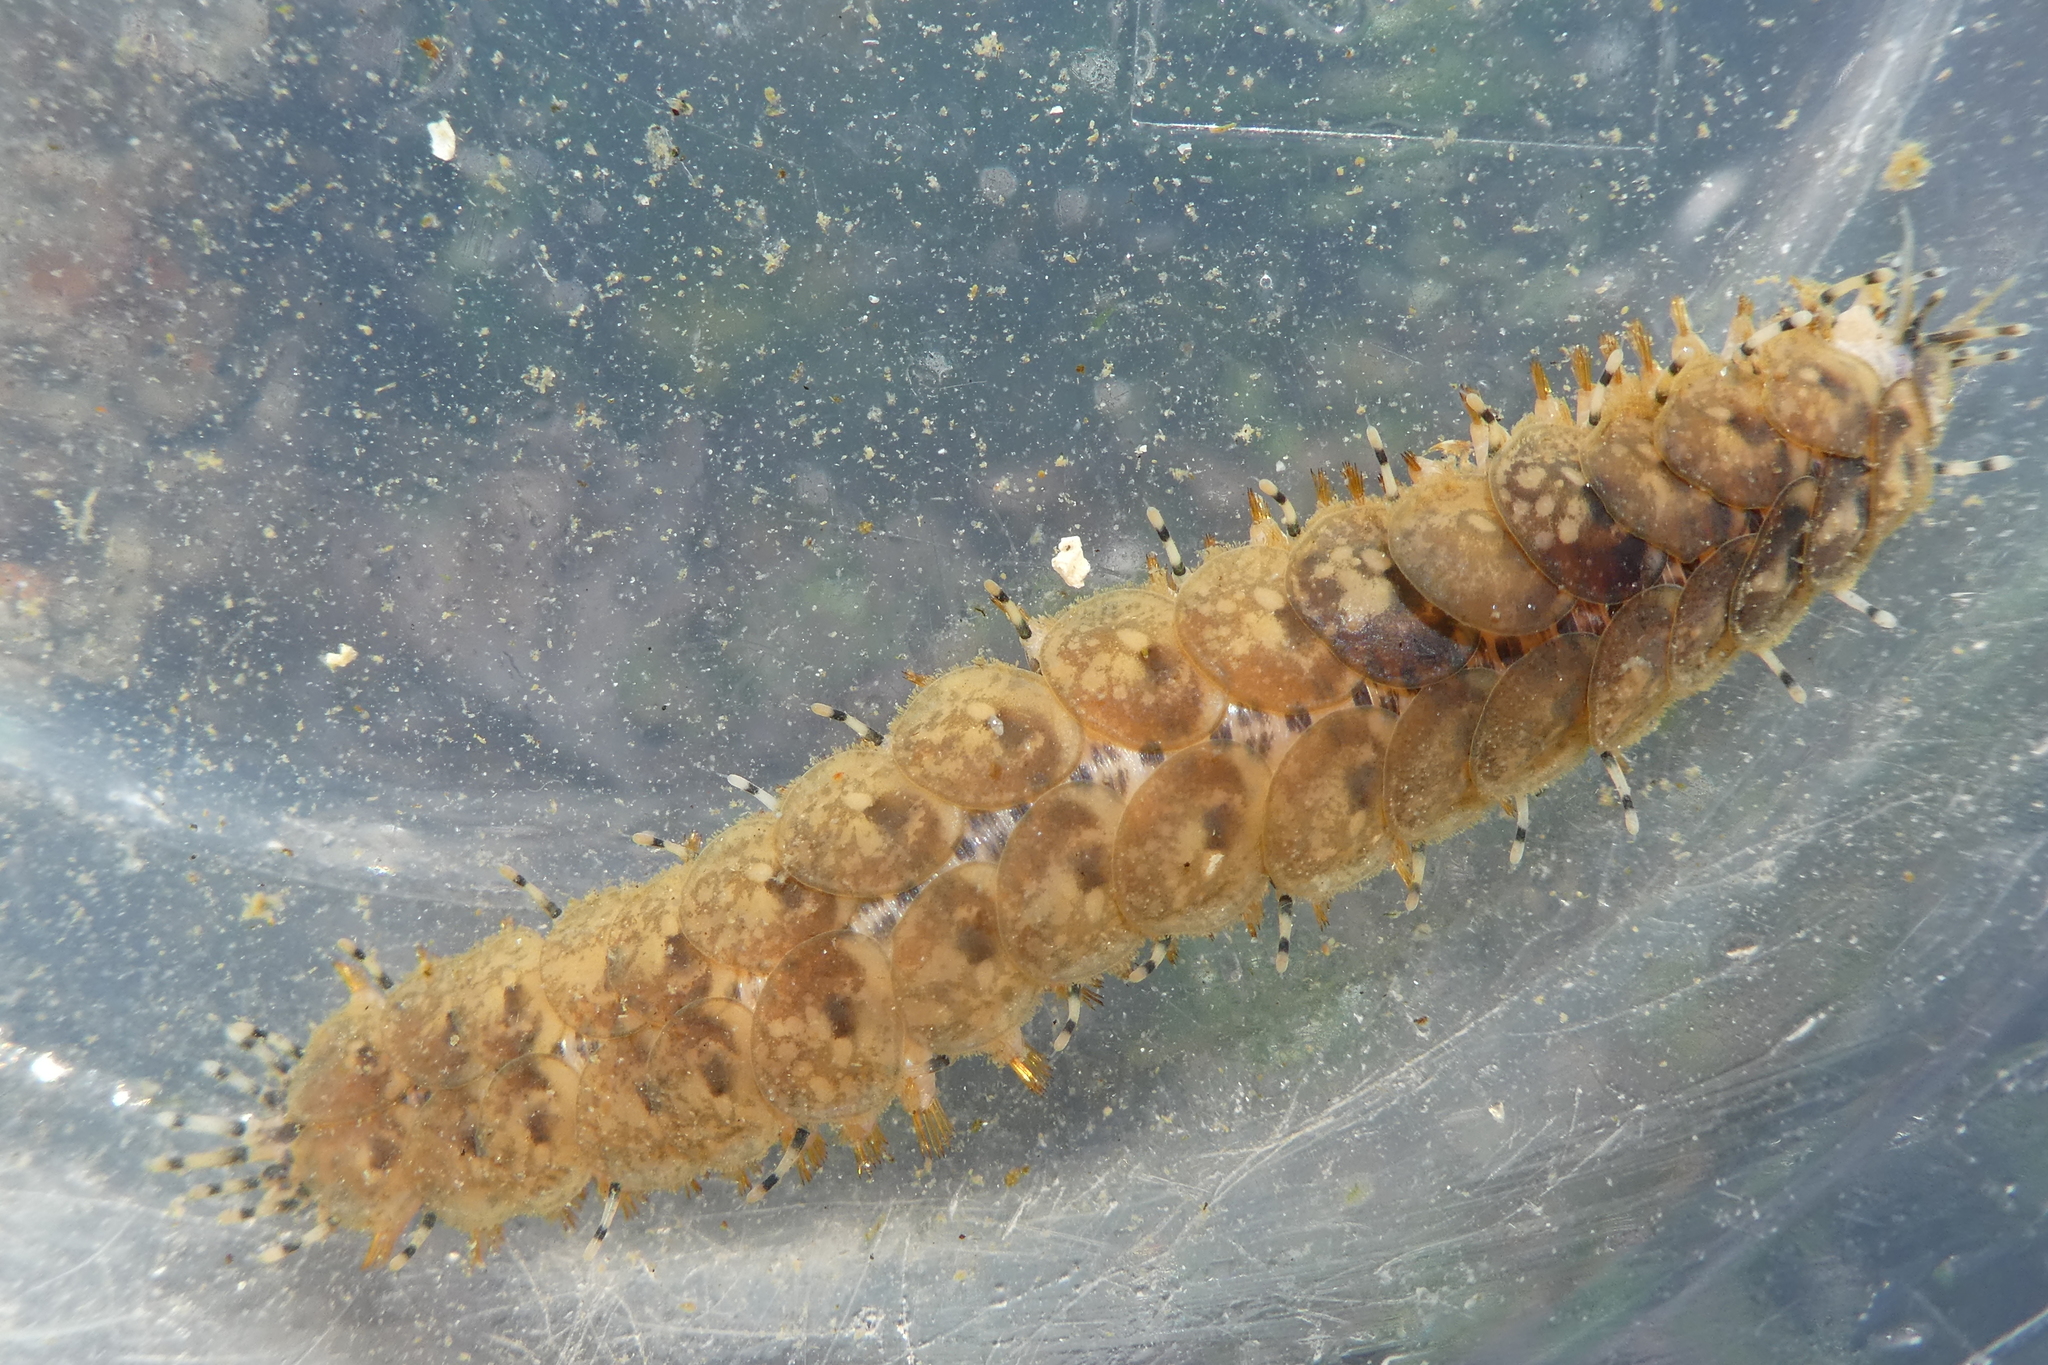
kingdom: Animalia
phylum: Annelida
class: Polychaeta
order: Phyllodocida
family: Polynoidae
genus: Halosydna
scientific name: Halosydna brevisetosa
